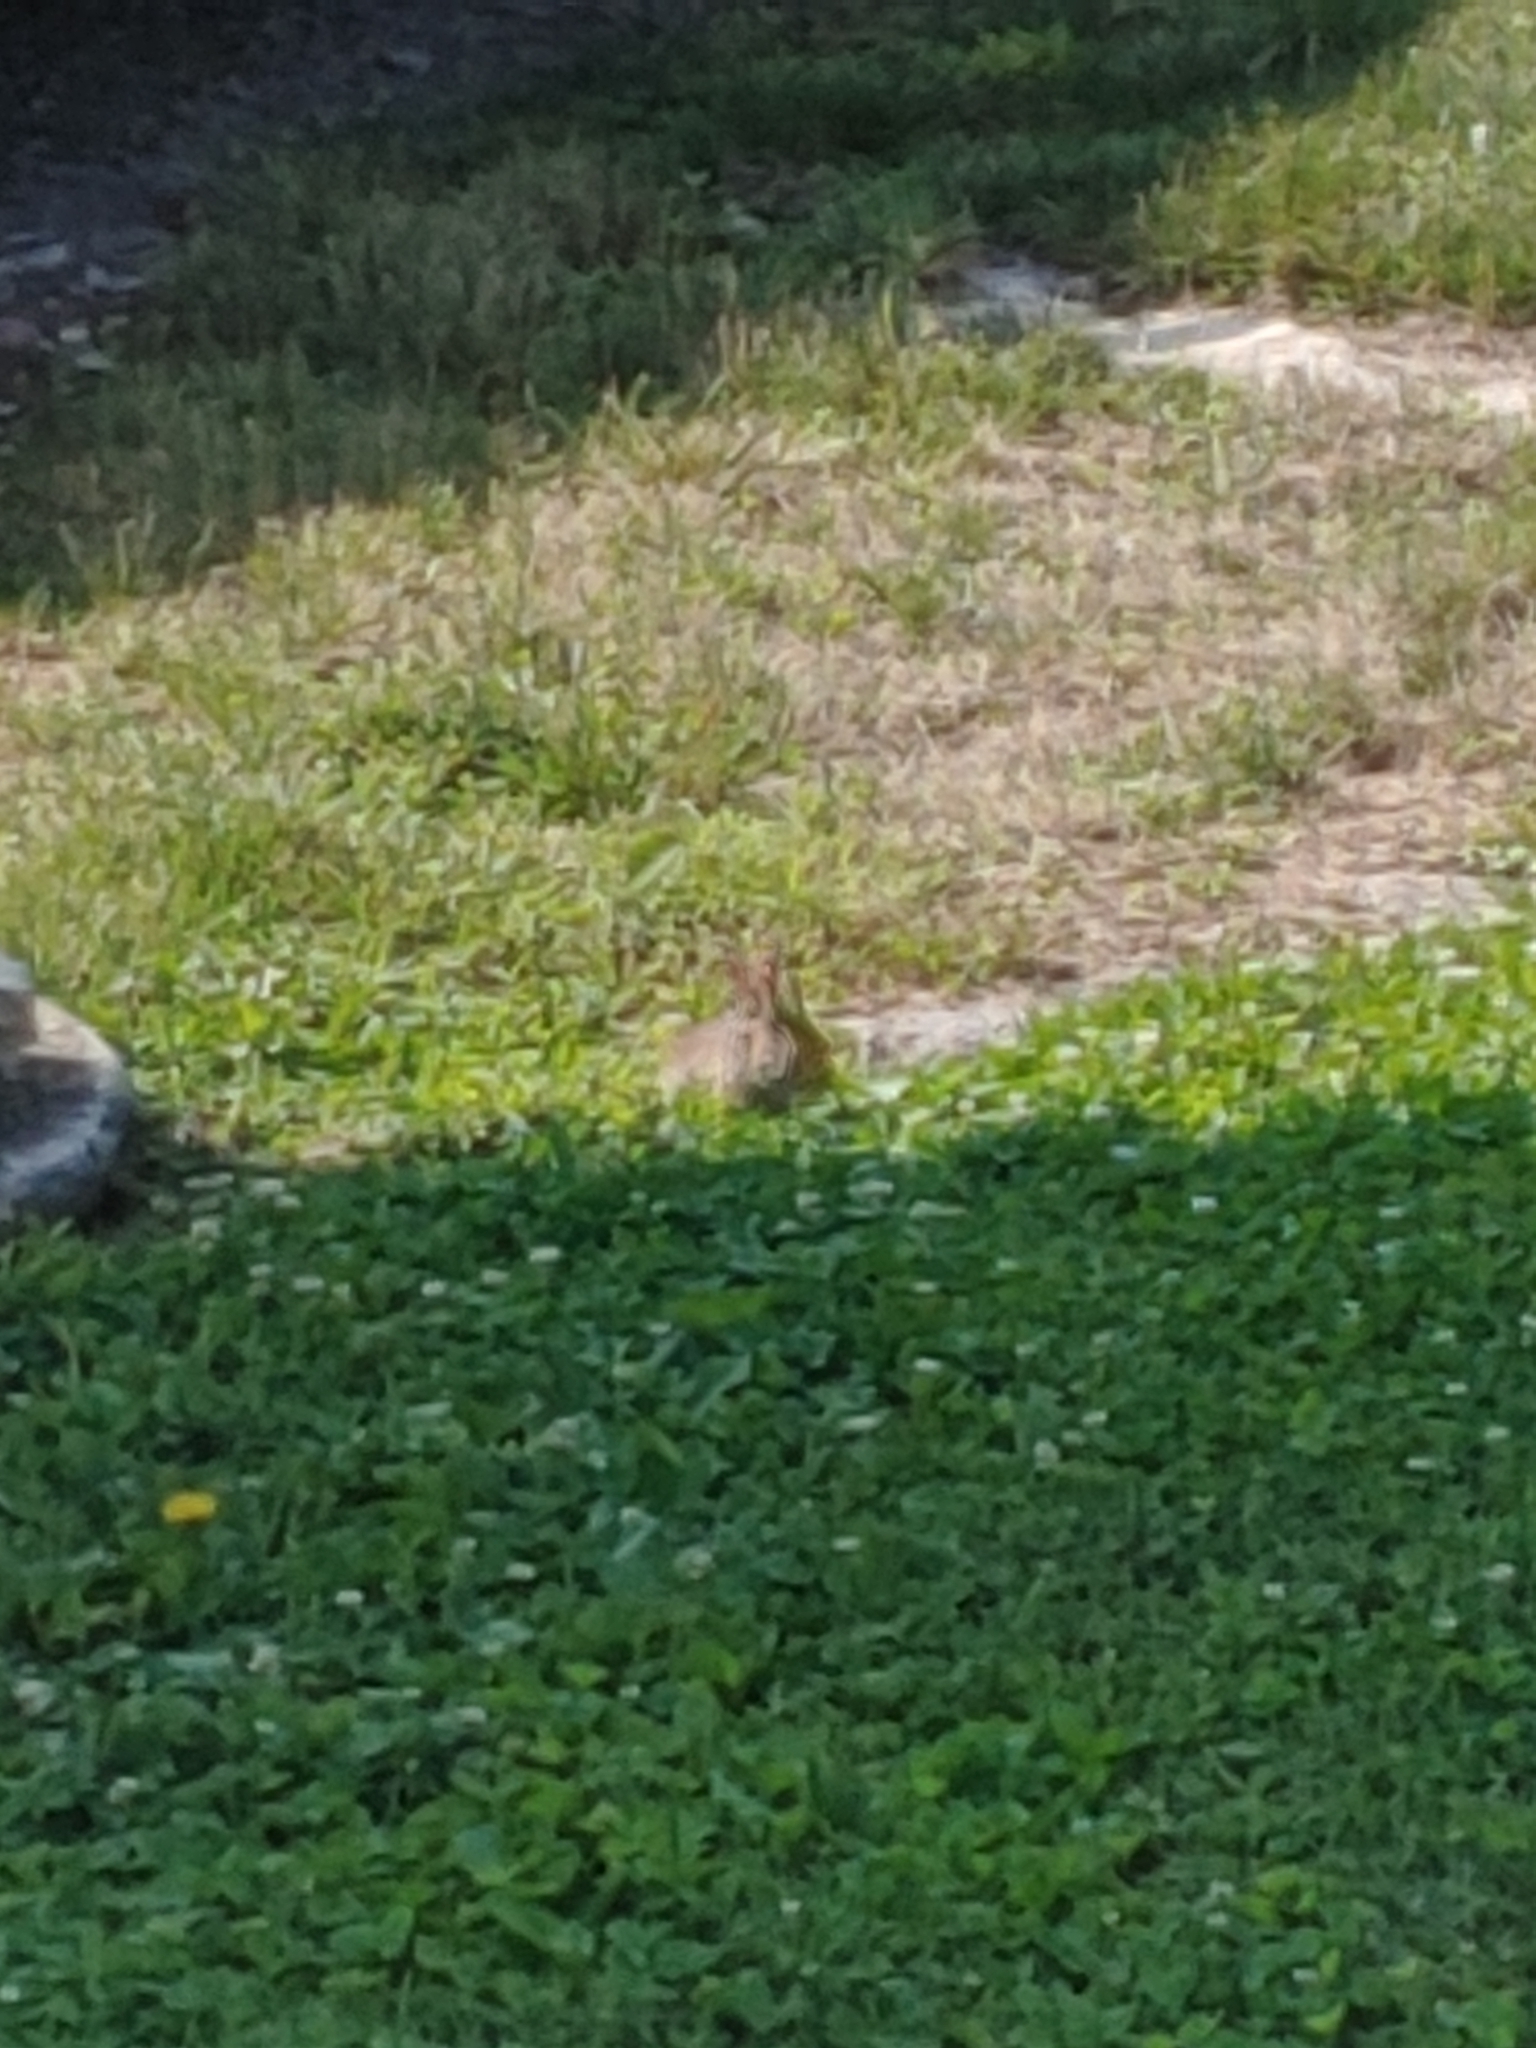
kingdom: Animalia
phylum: Chordata
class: Mammalia
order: Lagomorpha
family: Leporidae
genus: Sylvilagus
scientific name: Sylvilagus floridanus
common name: Eastern cottontail
